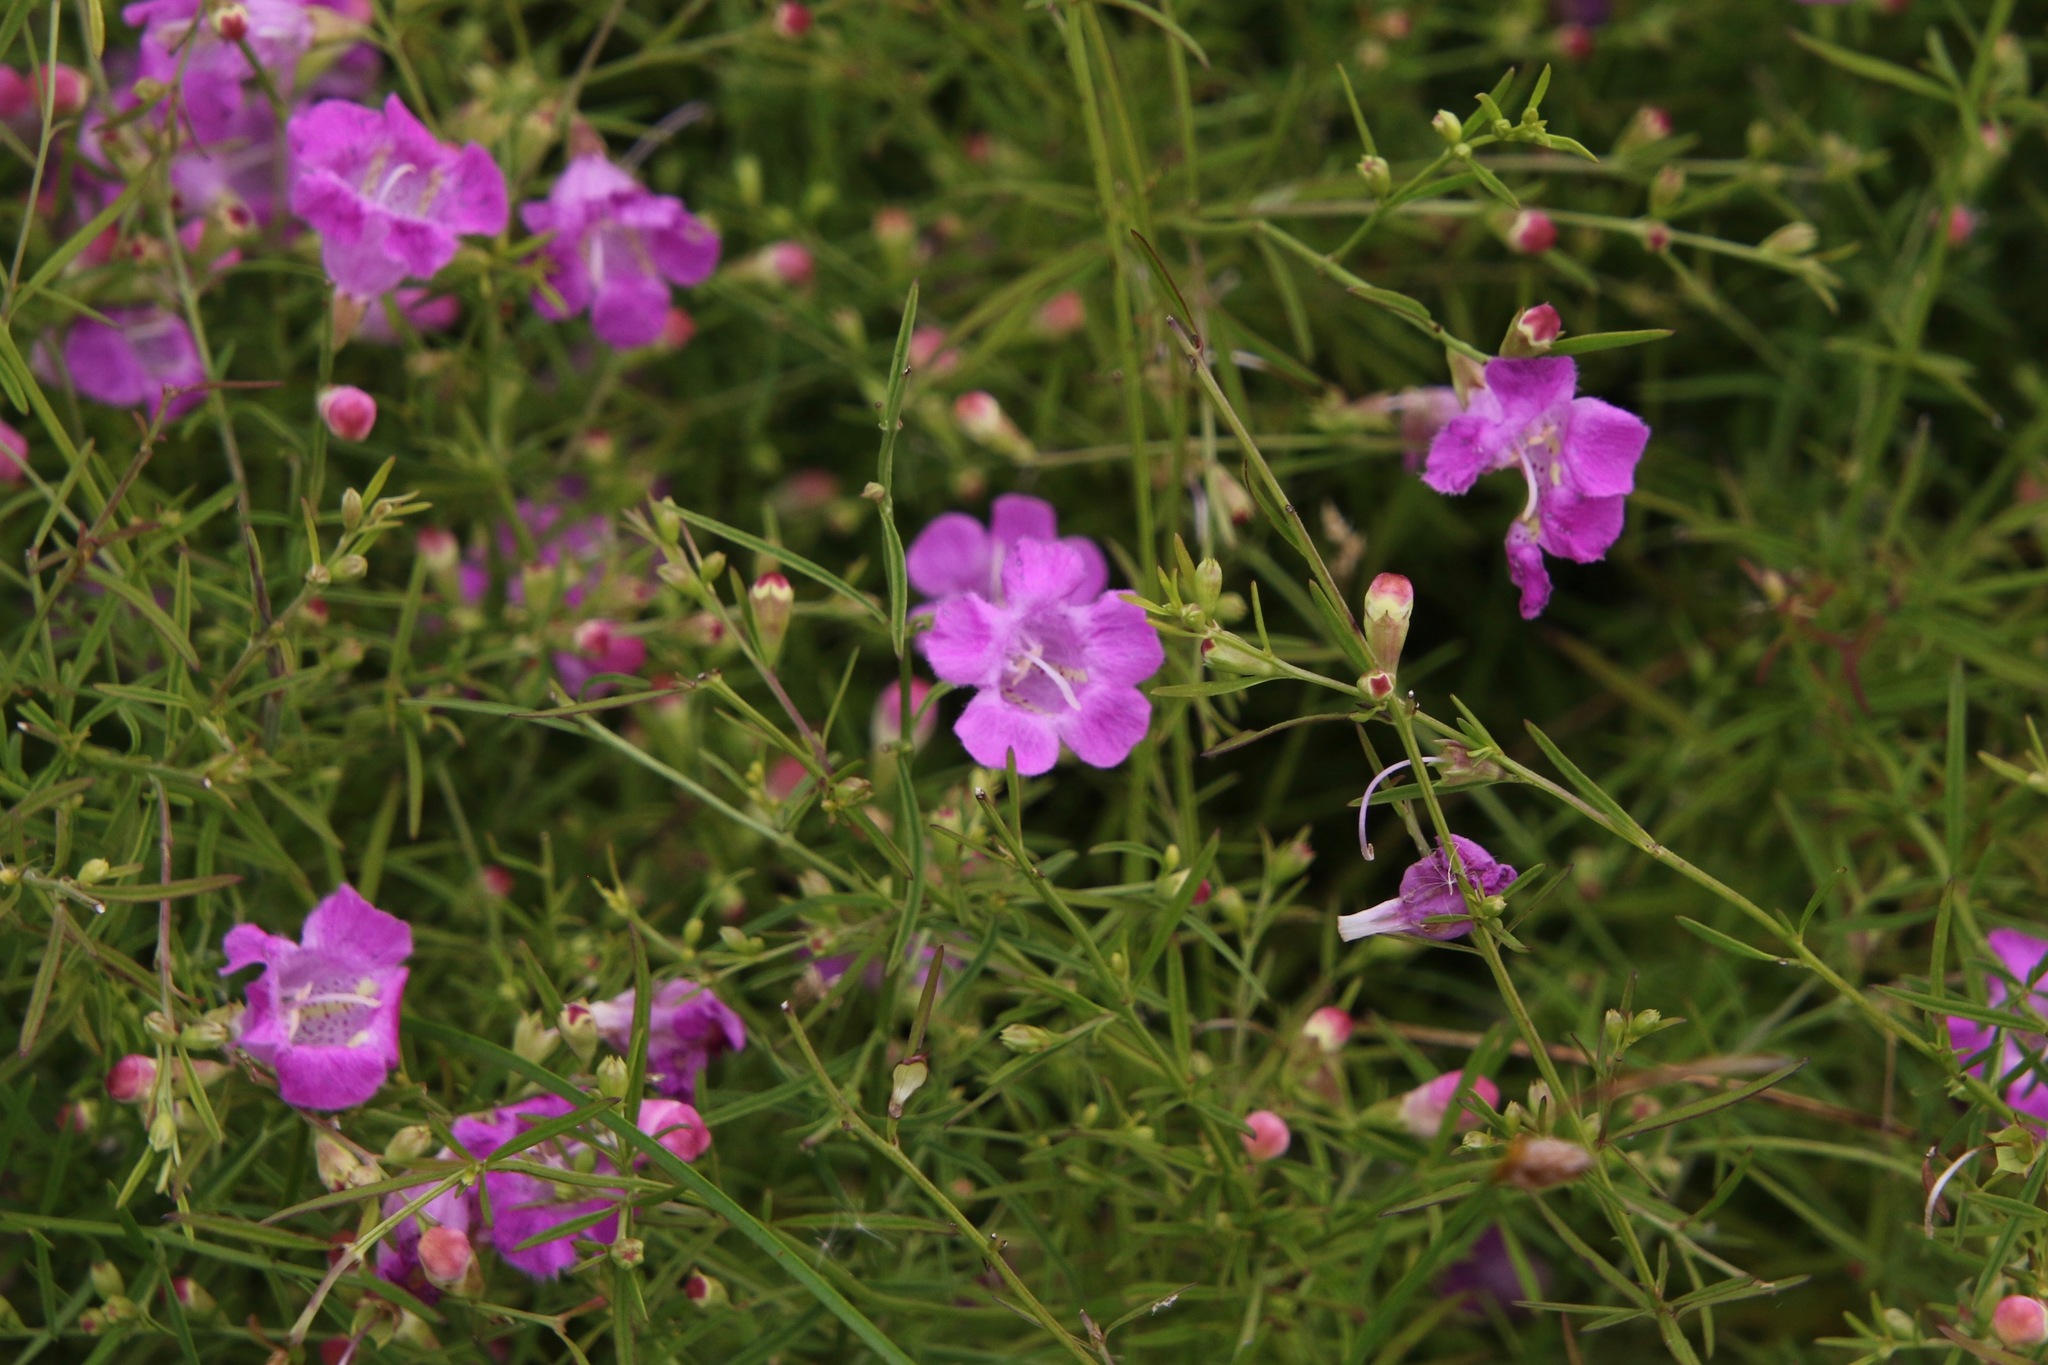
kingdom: Plantae
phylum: Tracheophyta
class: Magnoliopsida
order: Lamiales
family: Orobanchaceae
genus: Agalinis
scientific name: Agalinis purpurea
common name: Purple false foxglove
